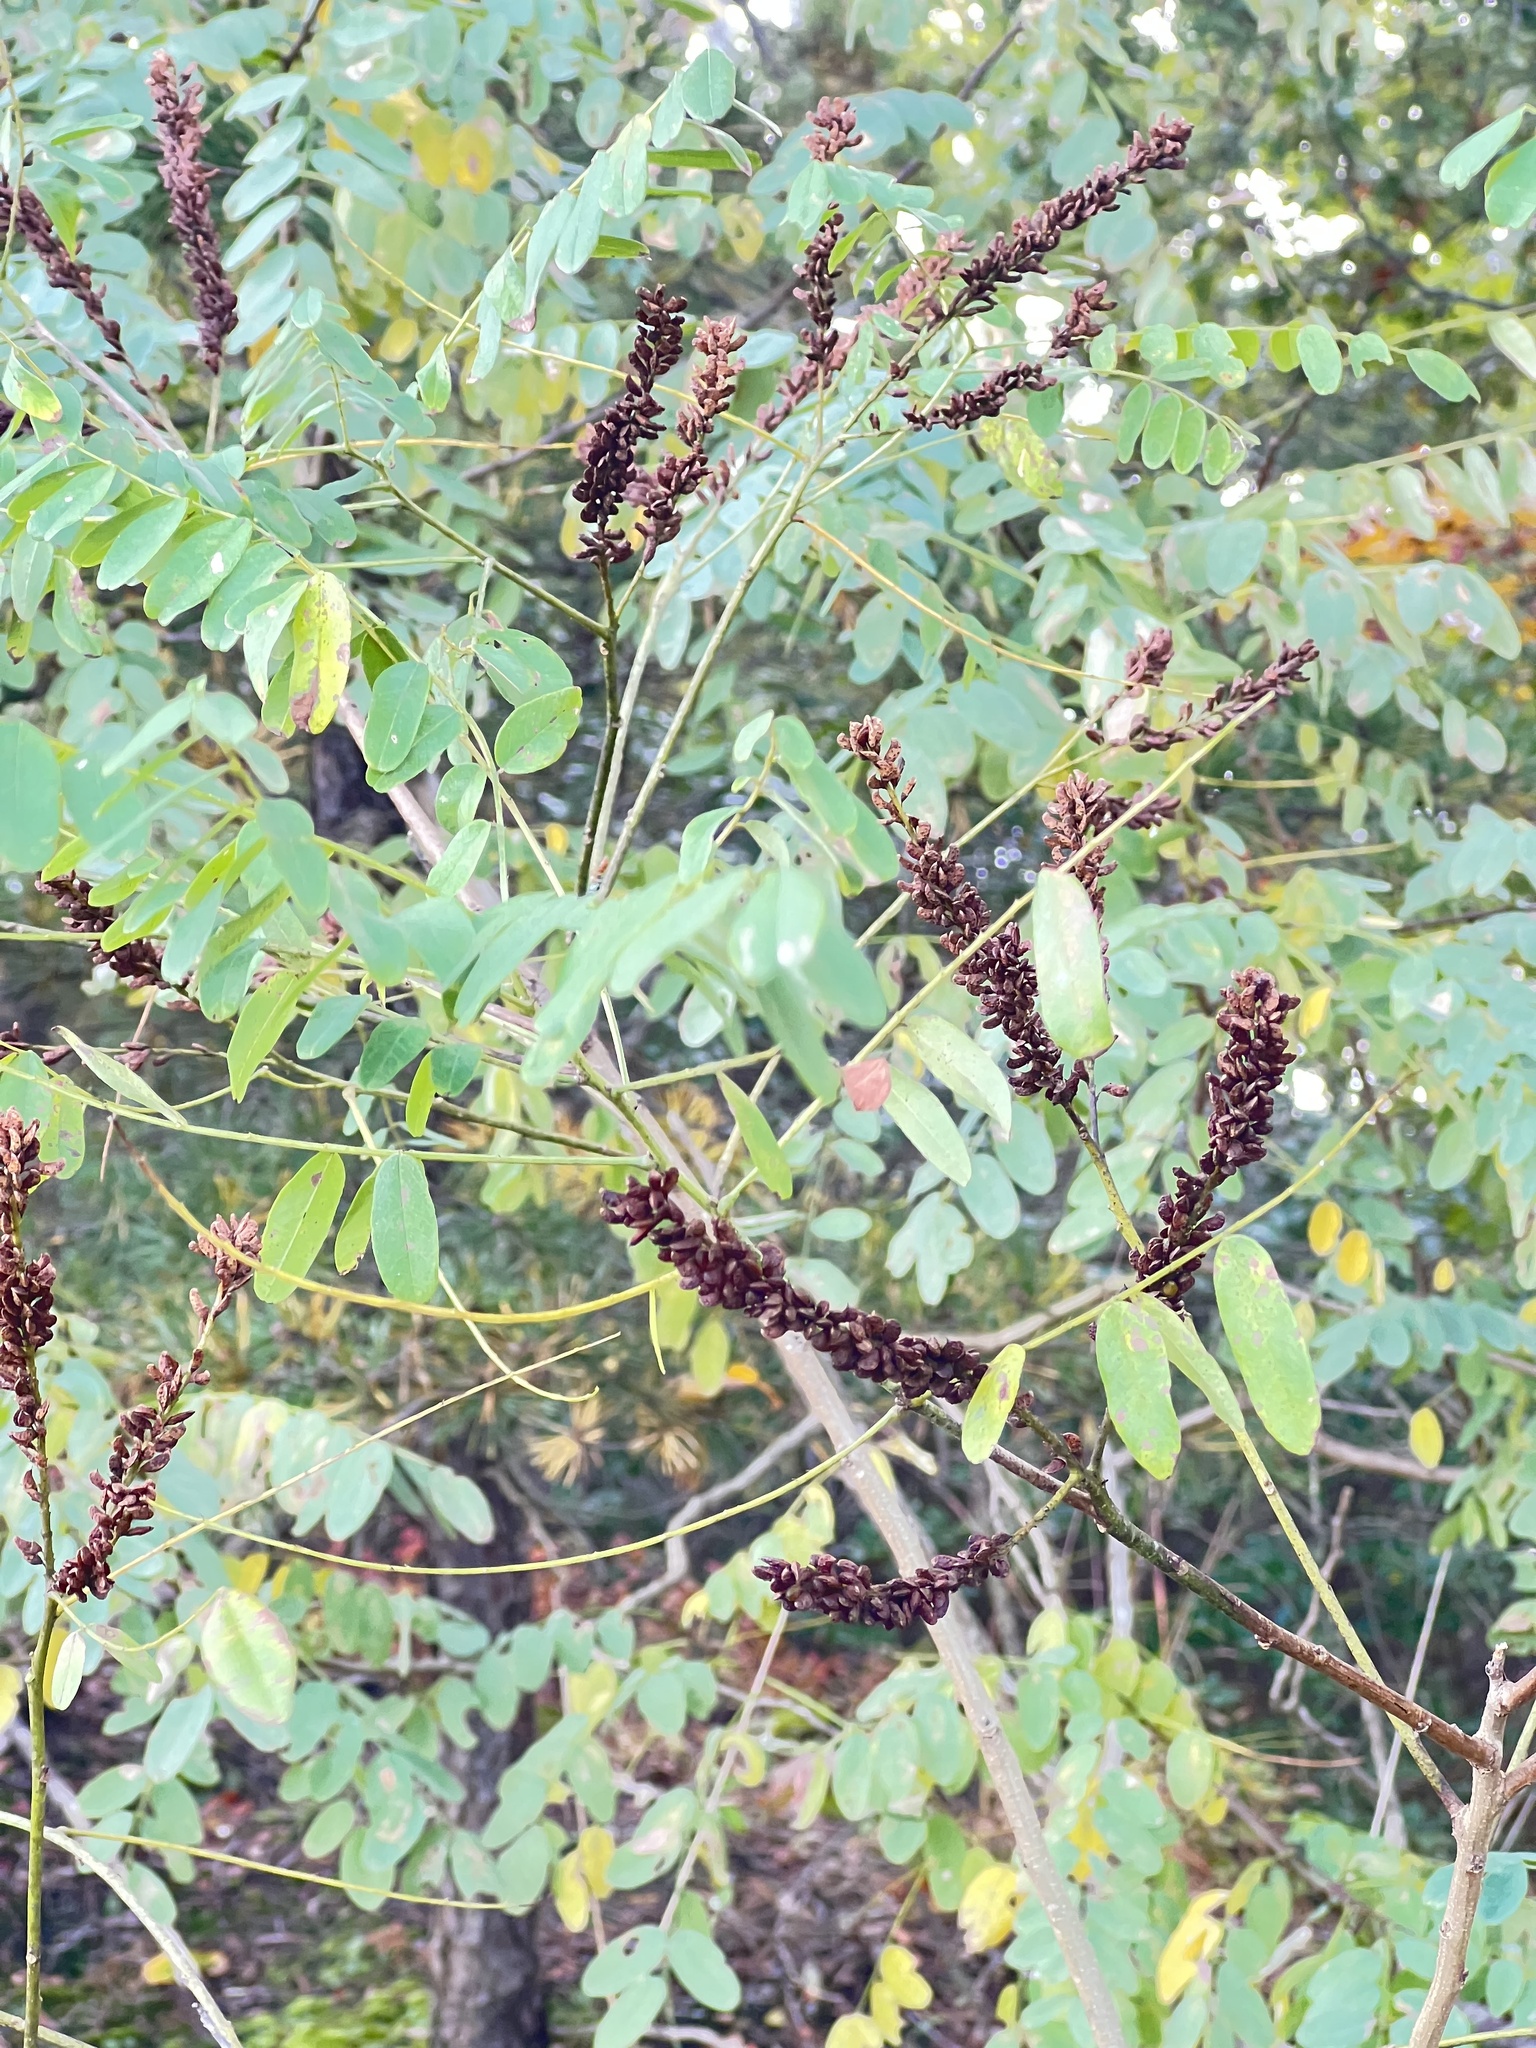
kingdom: Plantae
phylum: Tracheophyta
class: Magnoliopsida
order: Fabales
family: Fabaceae
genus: Amorpha
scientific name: Amorpha fruticosa
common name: False indigo
